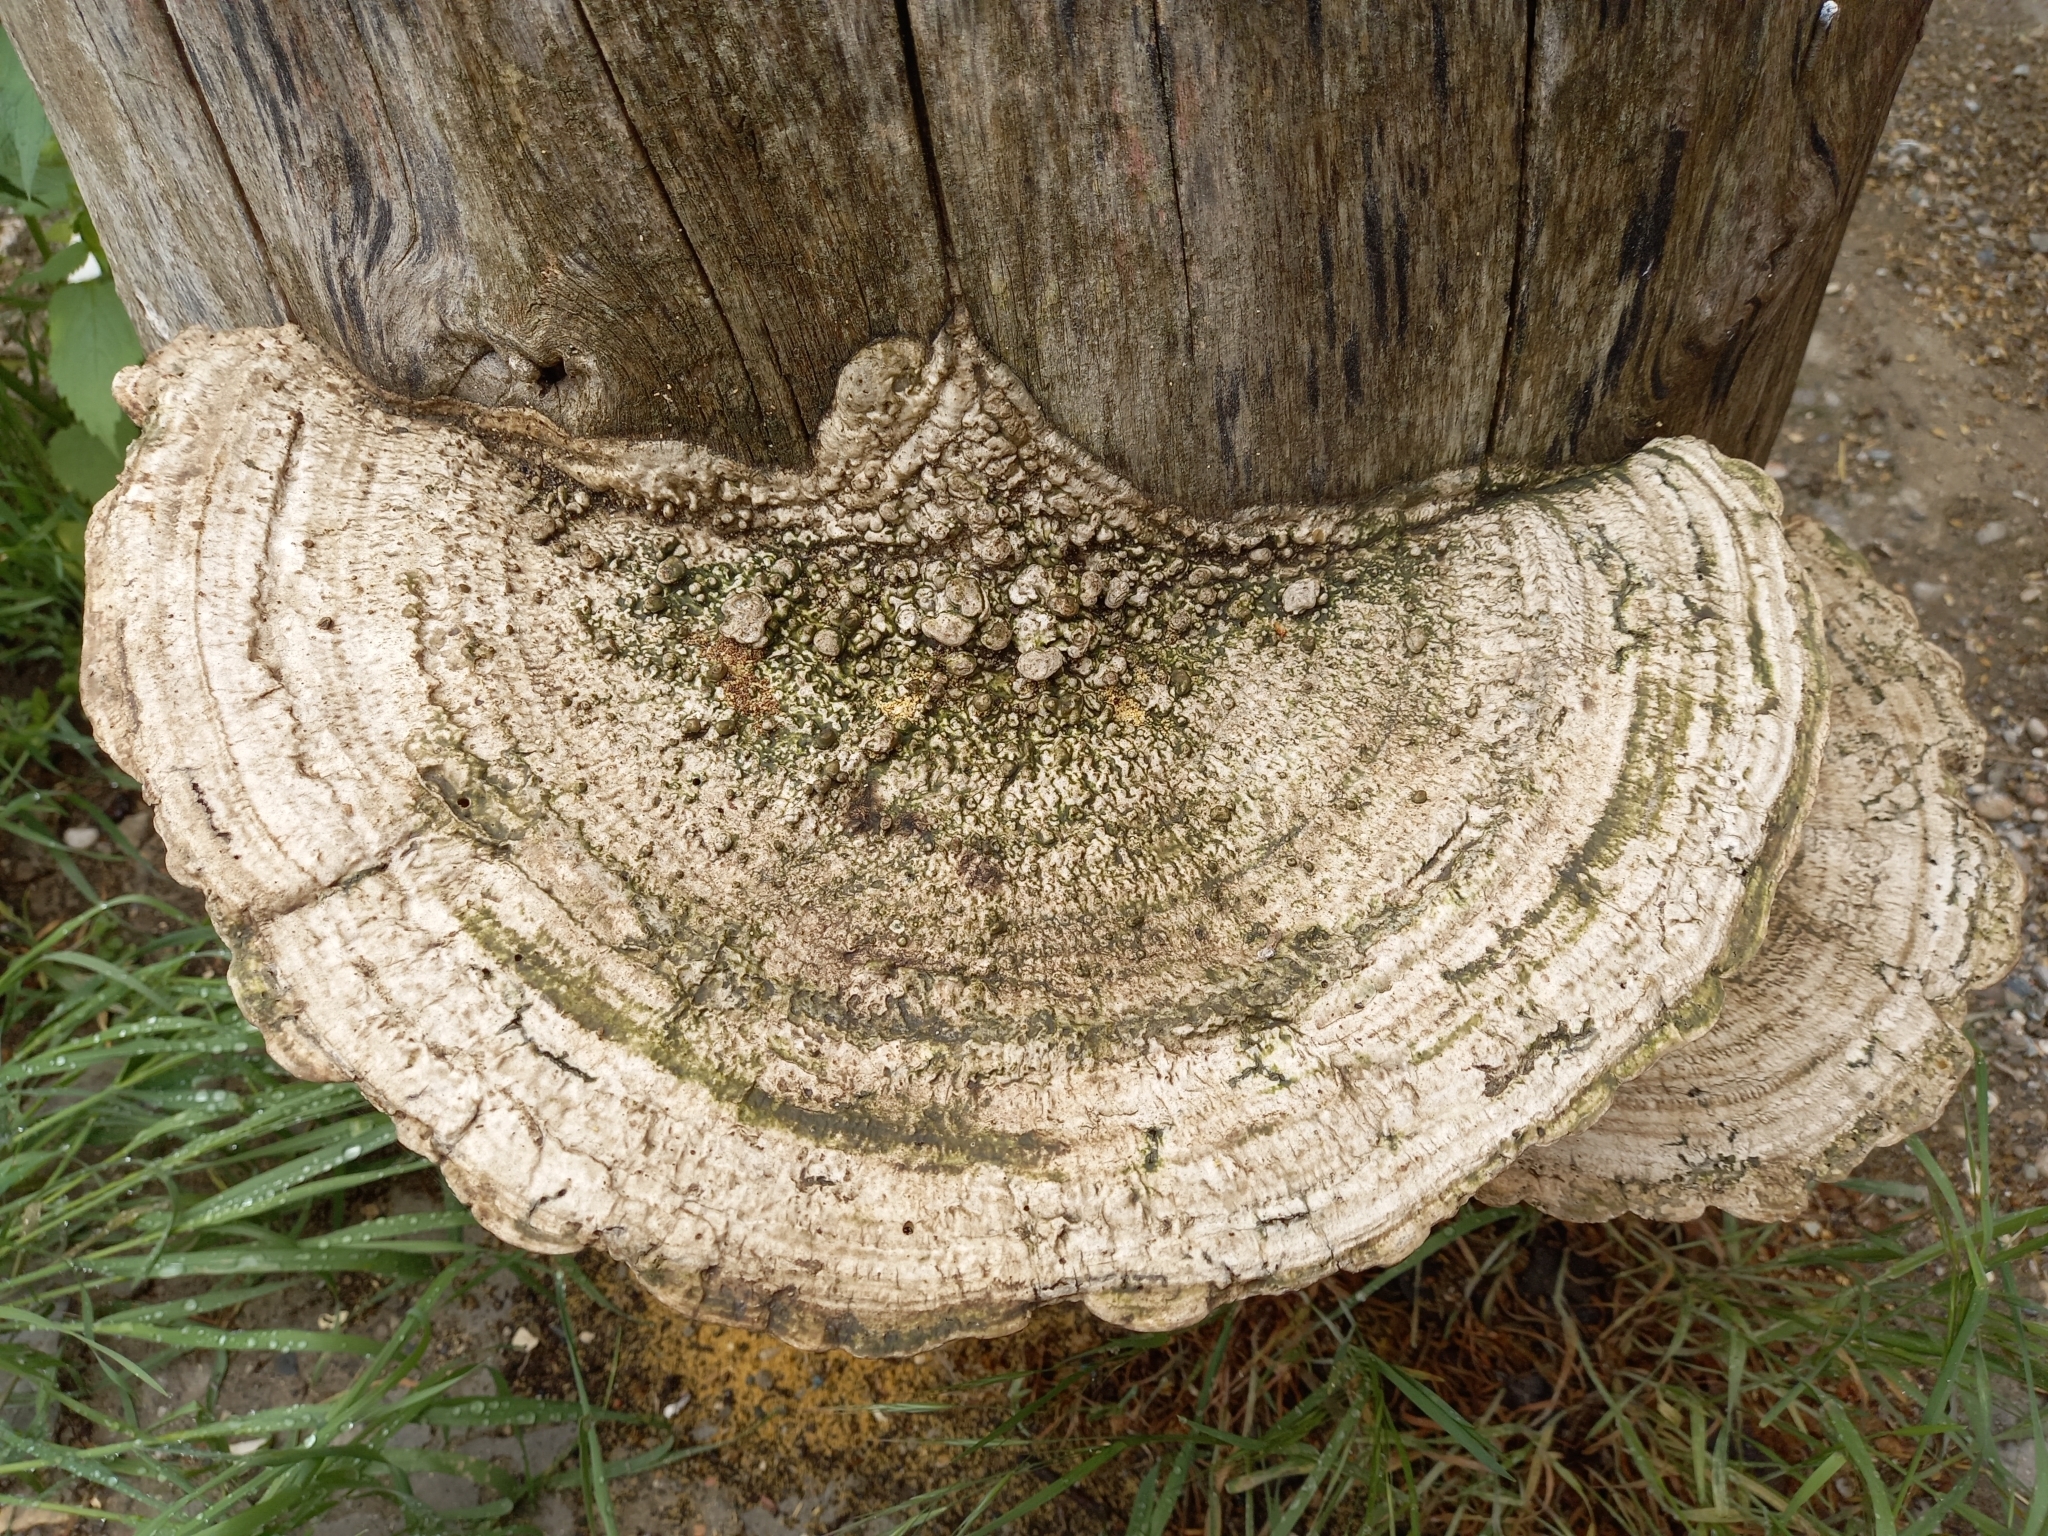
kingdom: Fungi
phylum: Basidiomycota
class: Agaricomycetes
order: Polyporales
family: Polyporaceae
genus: Cellulariella
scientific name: Cellulariella warnieri
